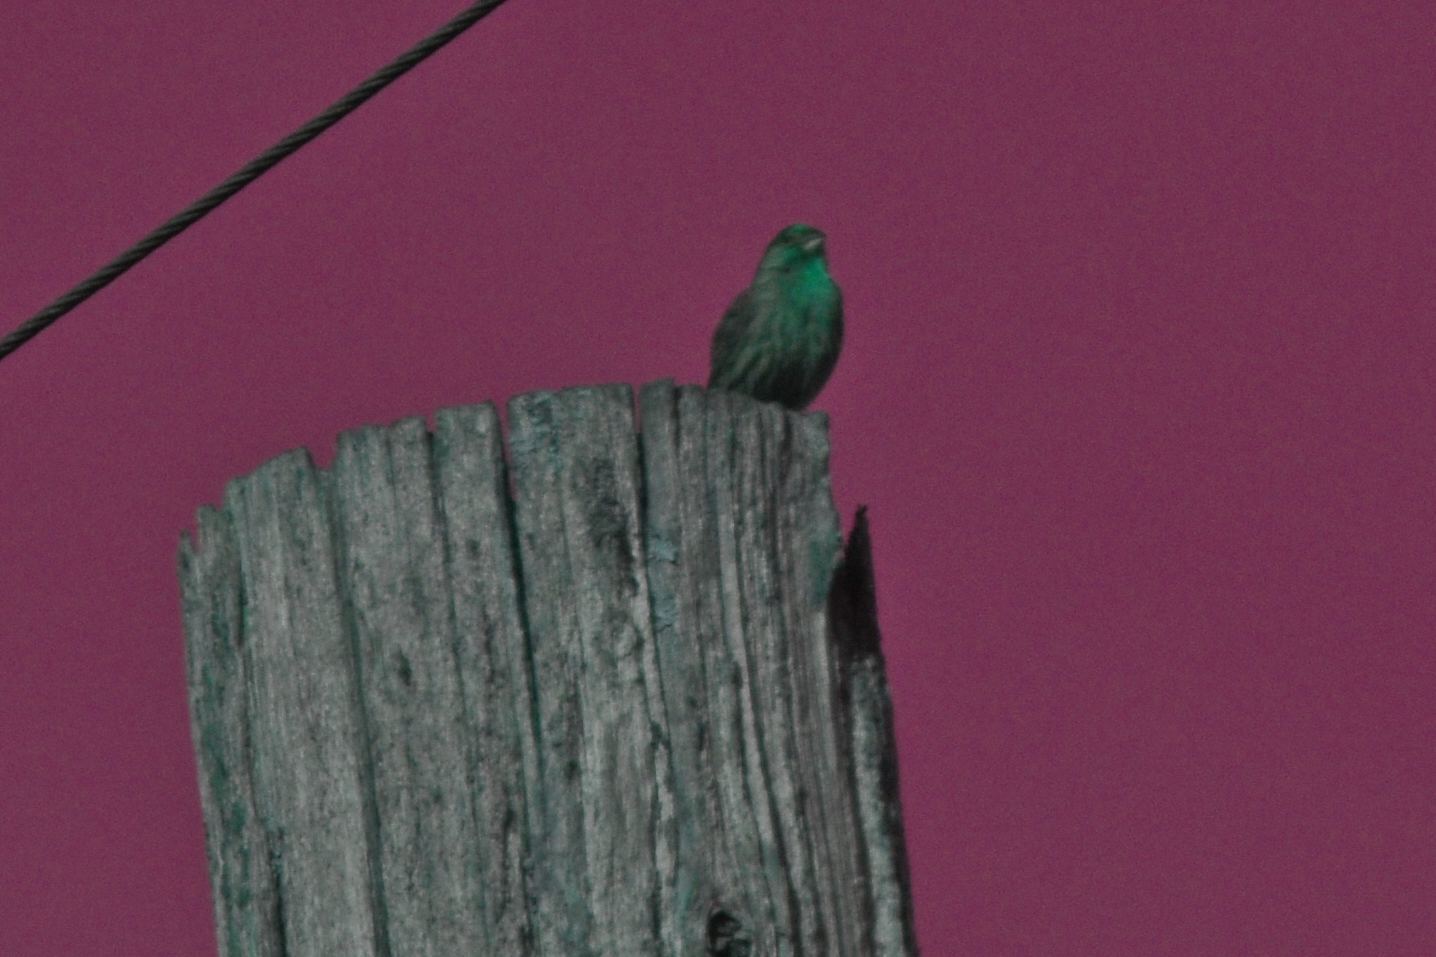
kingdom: Animalia
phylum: Chordata
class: Aves
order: Passeriformes
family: Fringillidae
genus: Haemorhous
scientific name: Haemorhous mexicanus
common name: House finch
